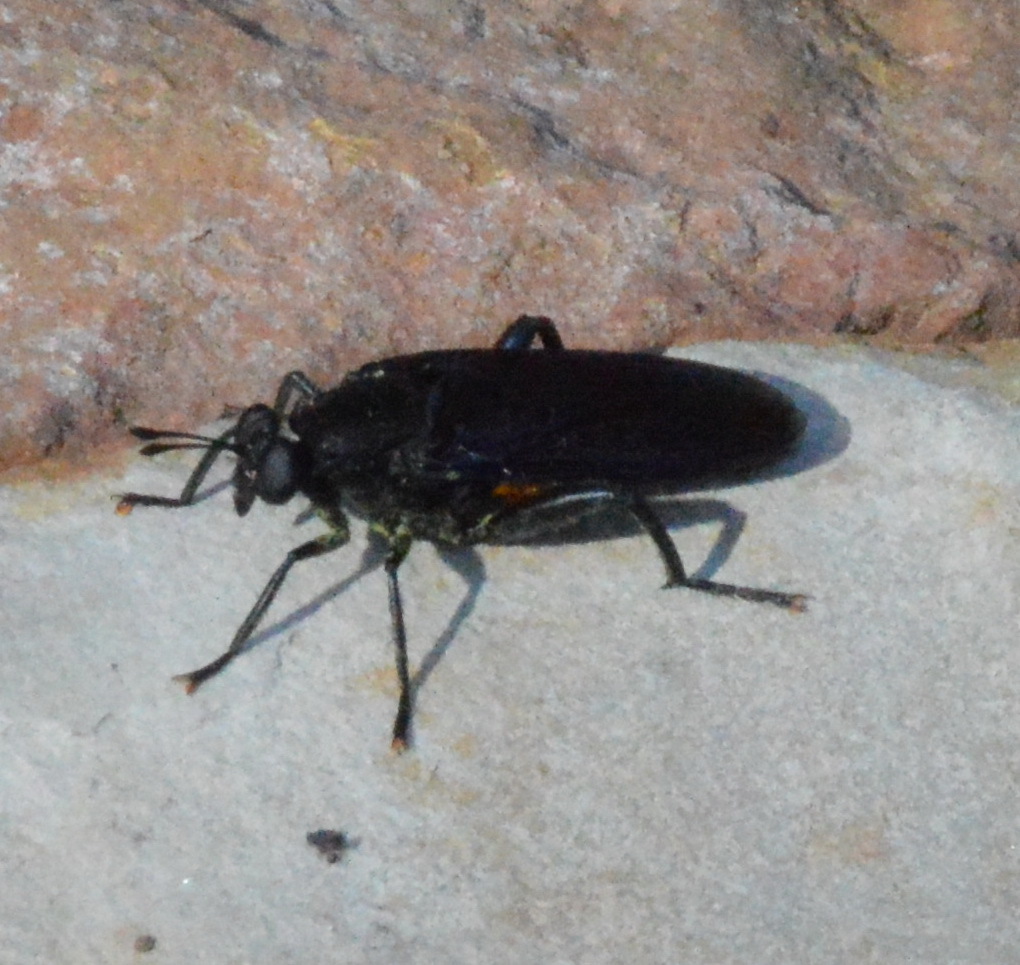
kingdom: Animalia
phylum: Arthropoda
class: Insecta
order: Diptera
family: Mydidae
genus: Mydas
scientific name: Mydas clavatus
